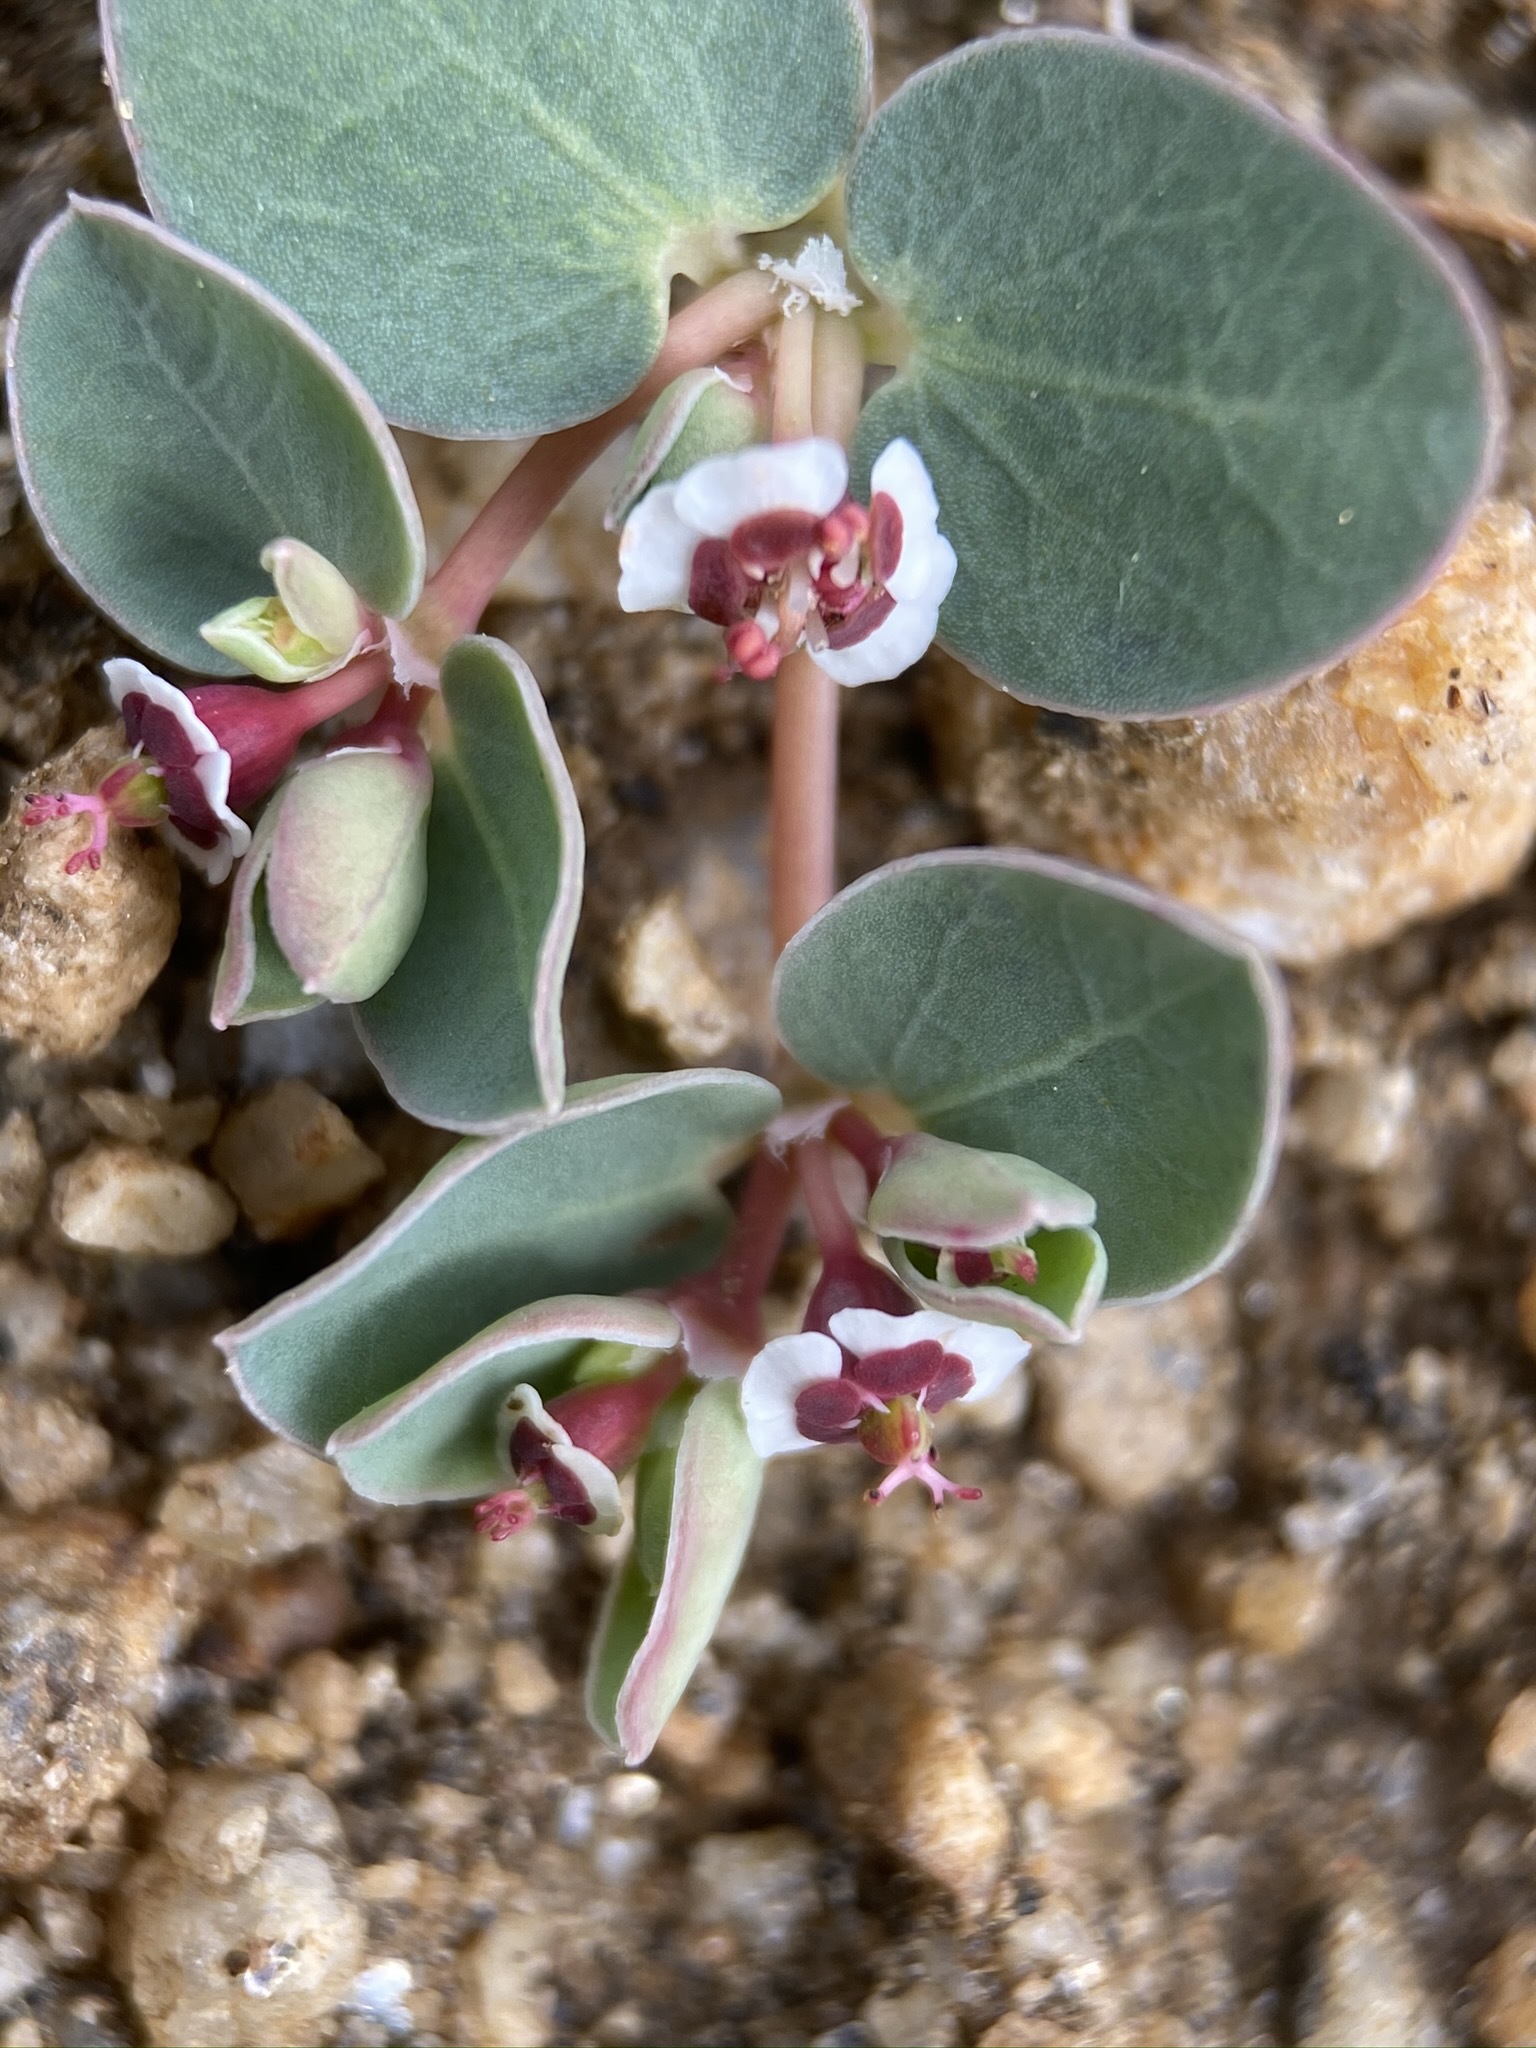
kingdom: Plantae
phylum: Tracheophyta
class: Magnoliopsida
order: Malpighiales
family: Euphorbiaceae
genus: Euphorbia
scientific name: Euphorbia albomarginata
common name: Whitemargin sandmat
